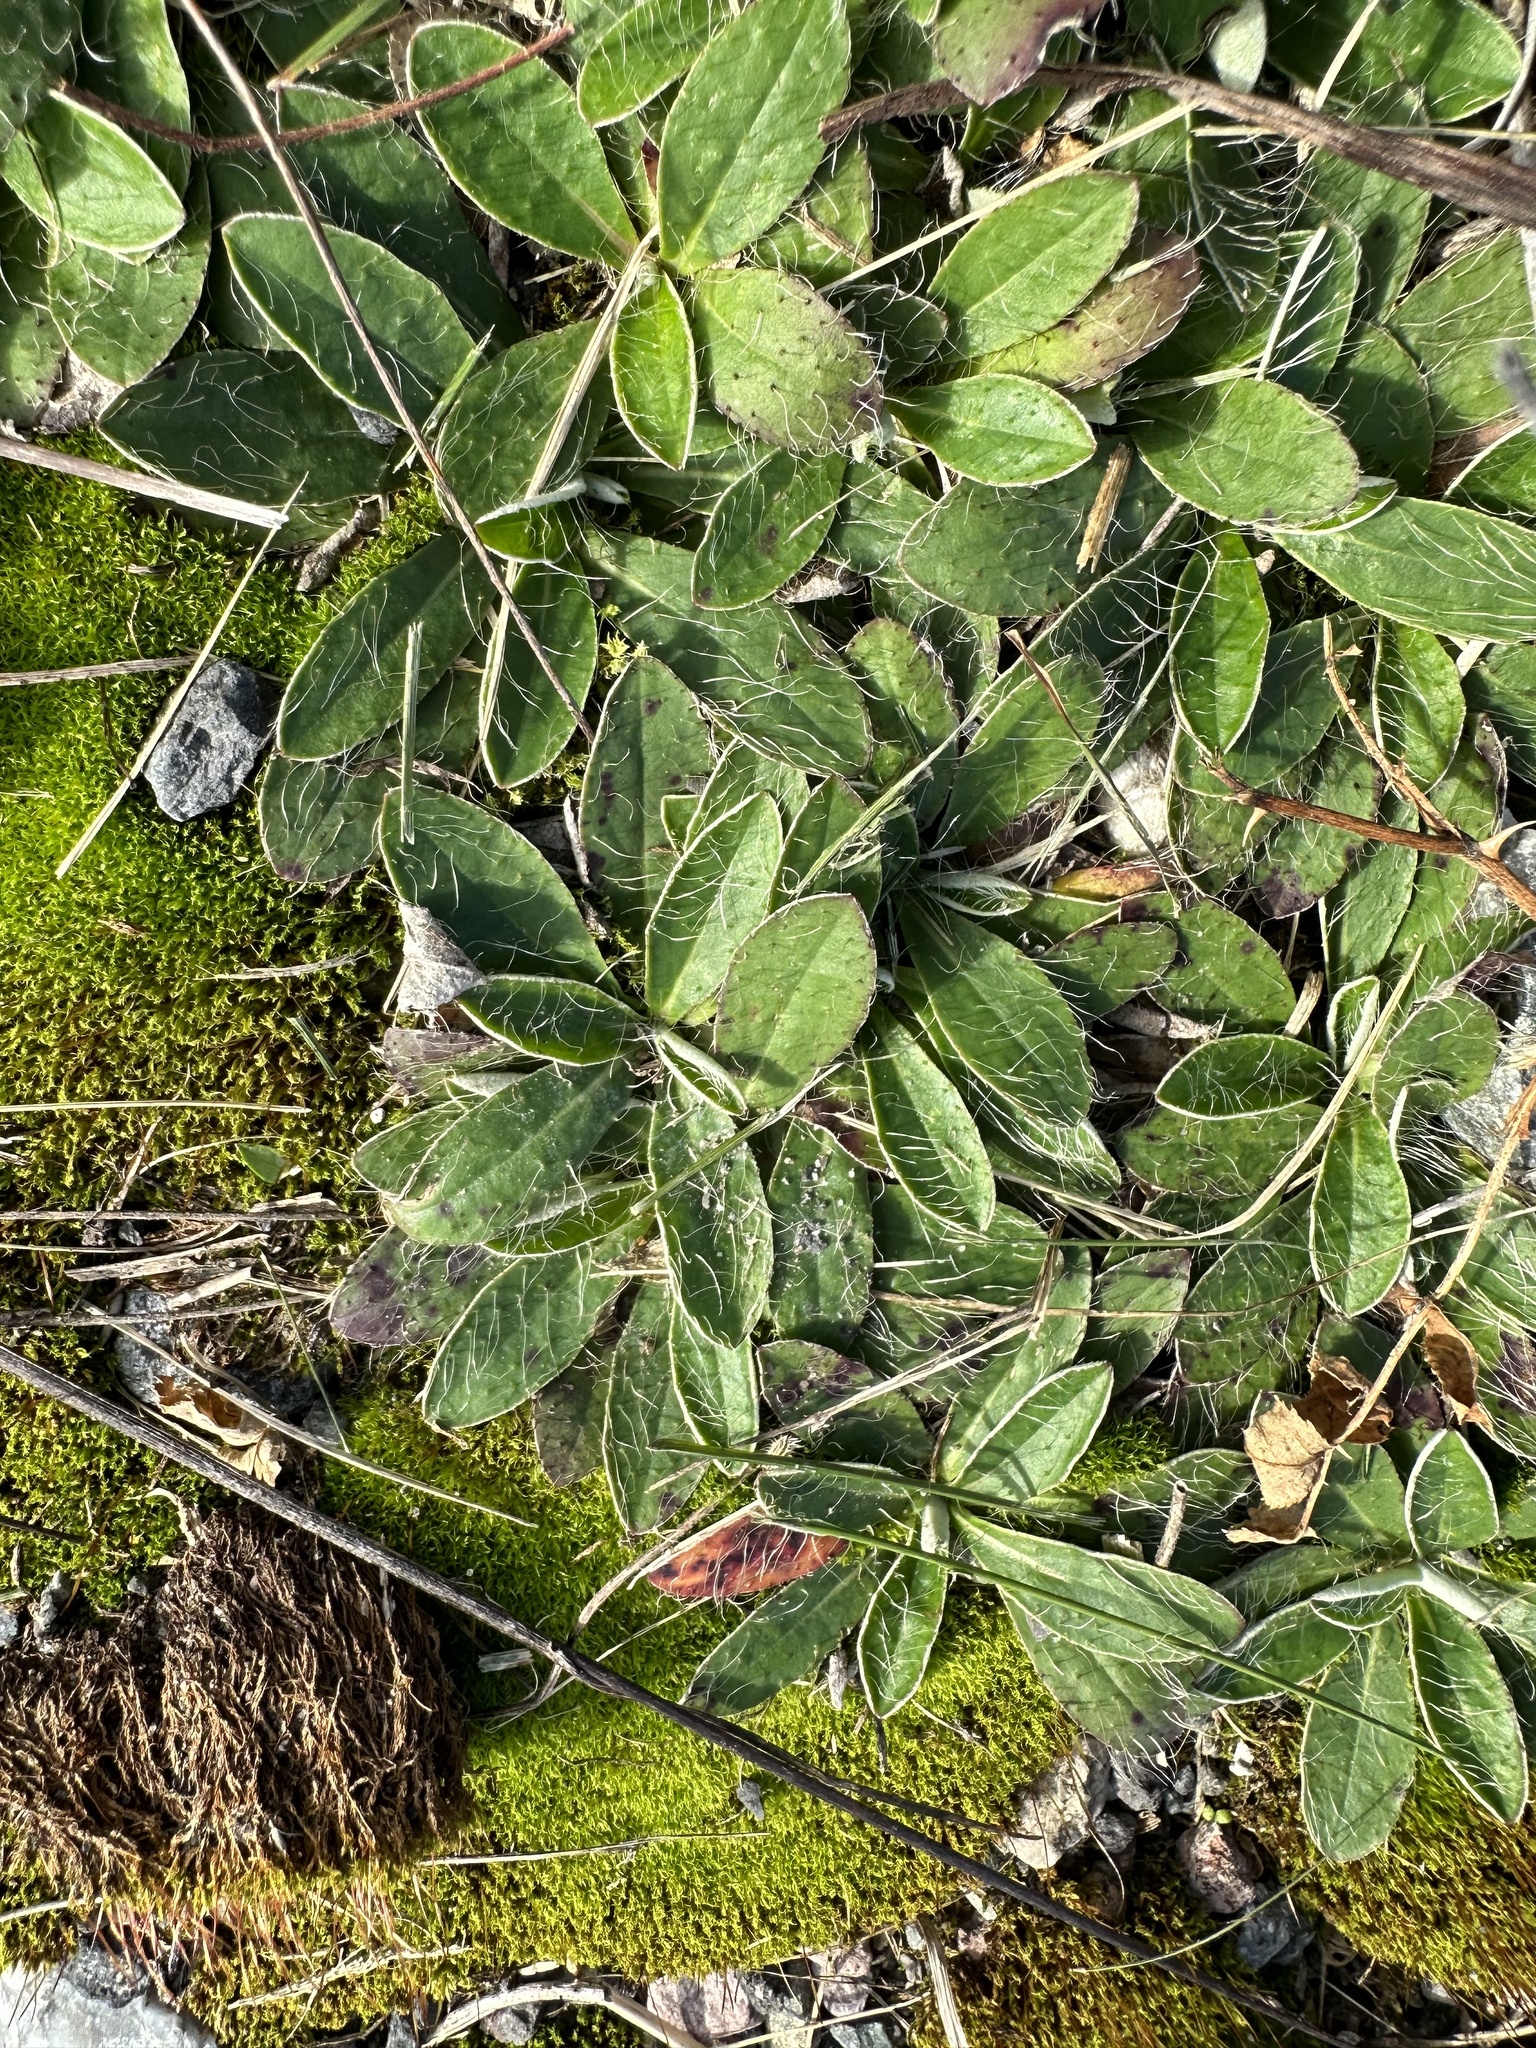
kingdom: Plantae
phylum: Tracheophyta
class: Magnoliopsida
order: Asterales
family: Asteraceae
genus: Pilosella
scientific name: Pilosella officinarum
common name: Mouse-ear hawkweed
